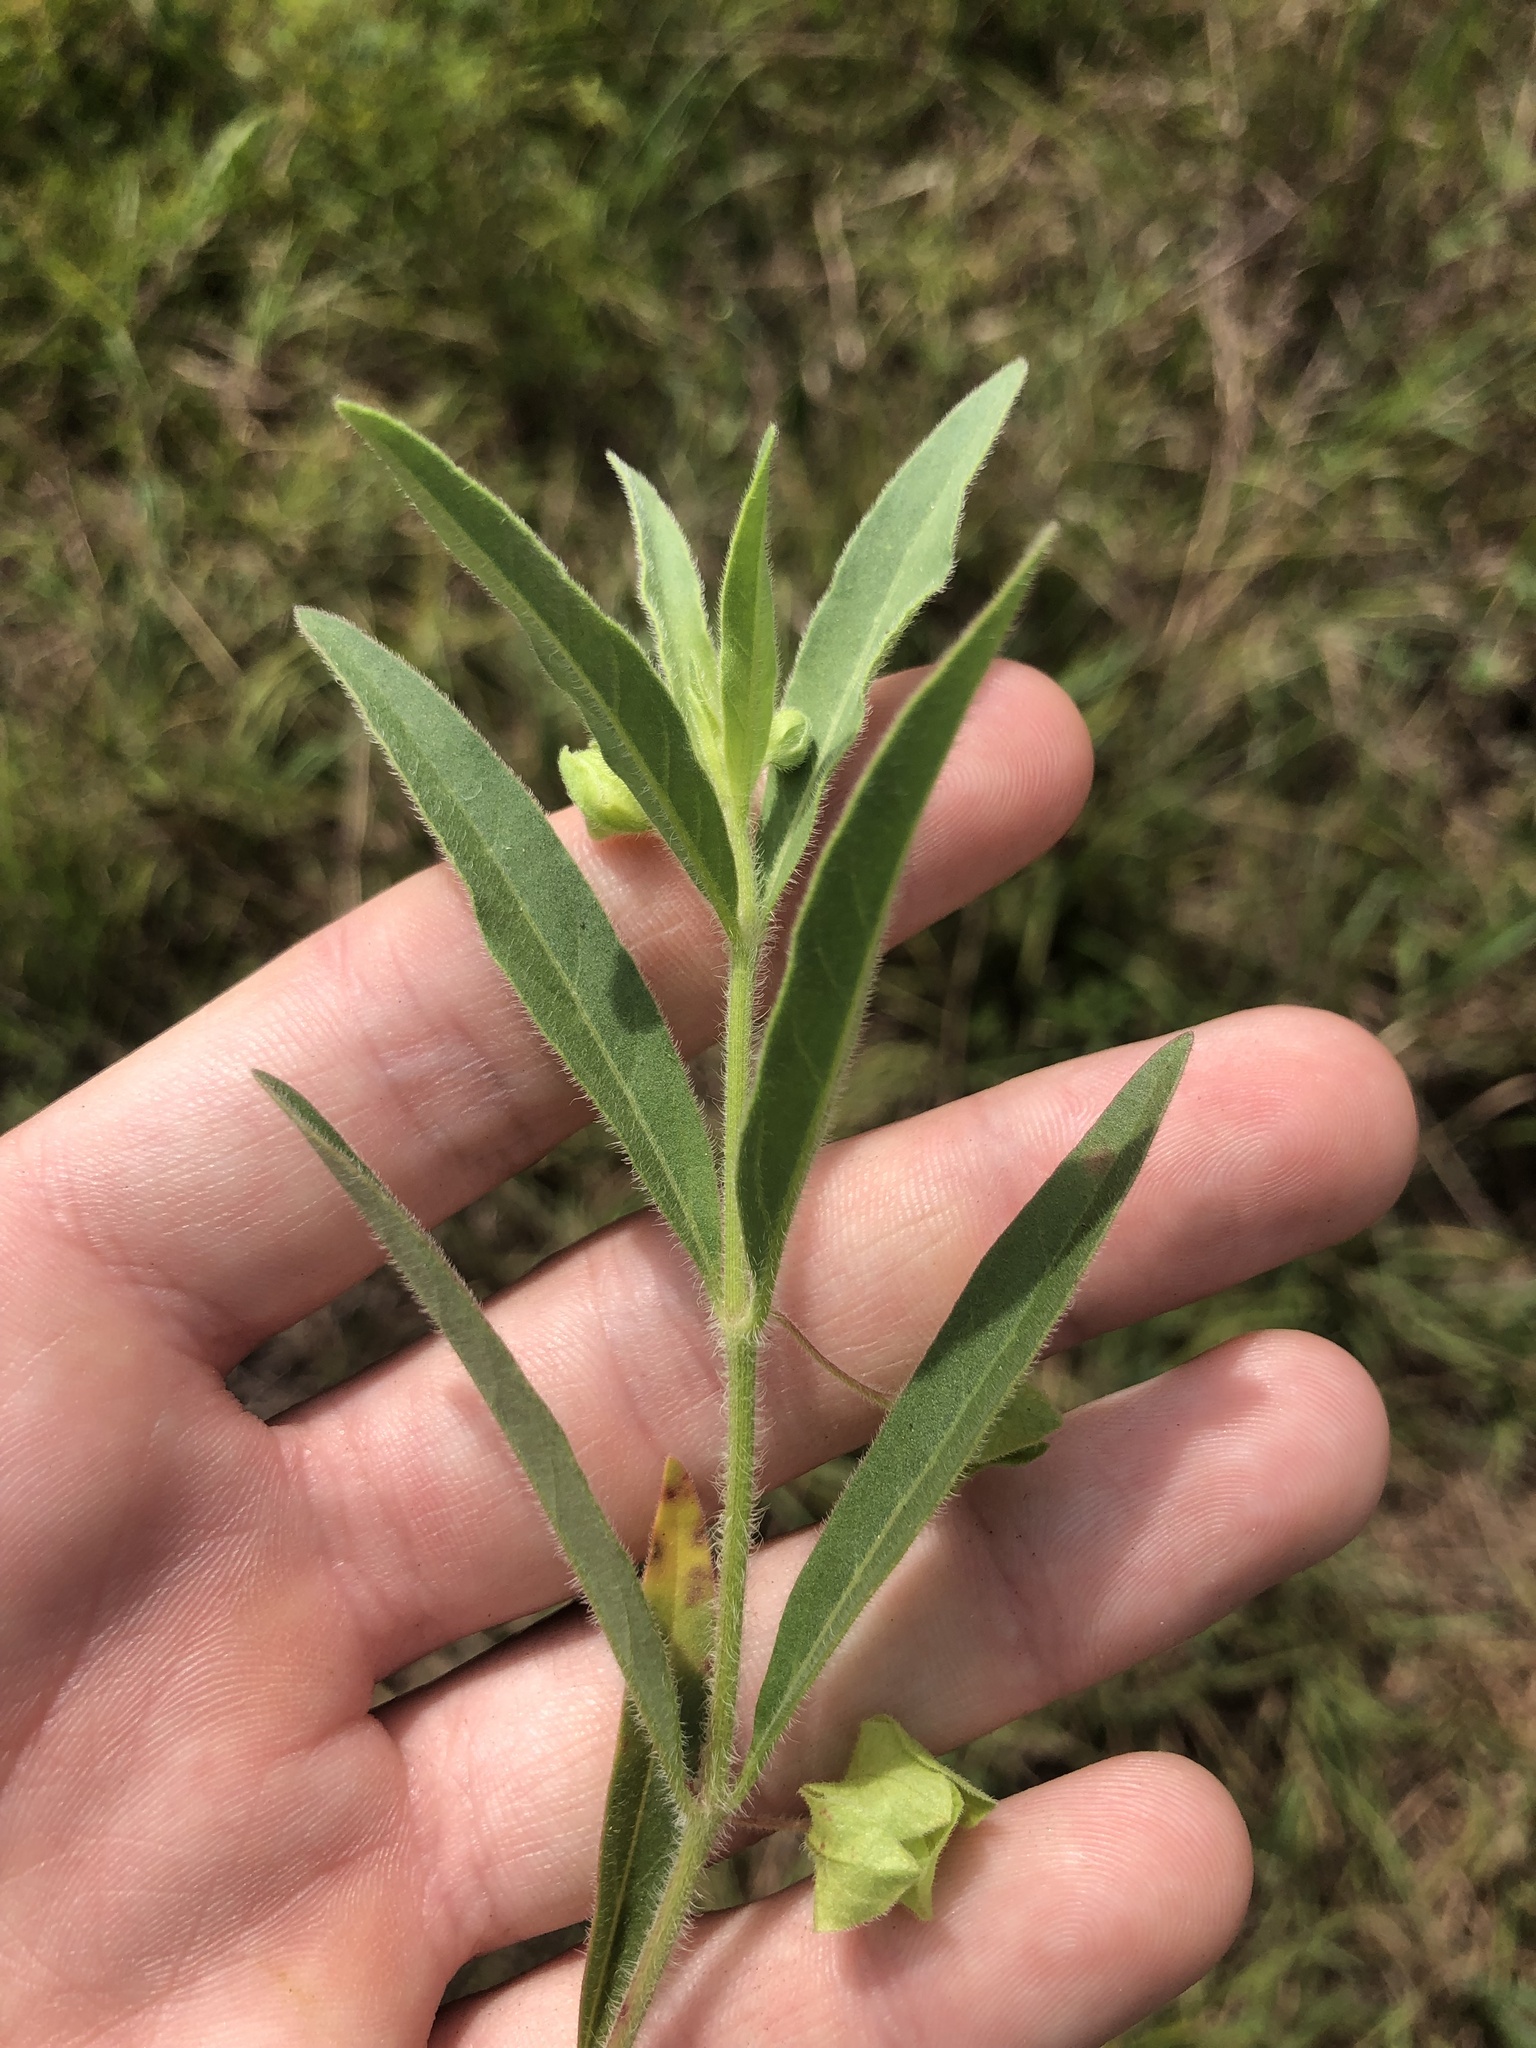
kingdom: Plantae
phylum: Tracheophyta
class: Magnoliopsida
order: Caryophyllales
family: Nyctaginaceae
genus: Mirabilis
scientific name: Mirabilis albida
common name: Hairy four-o'clock
